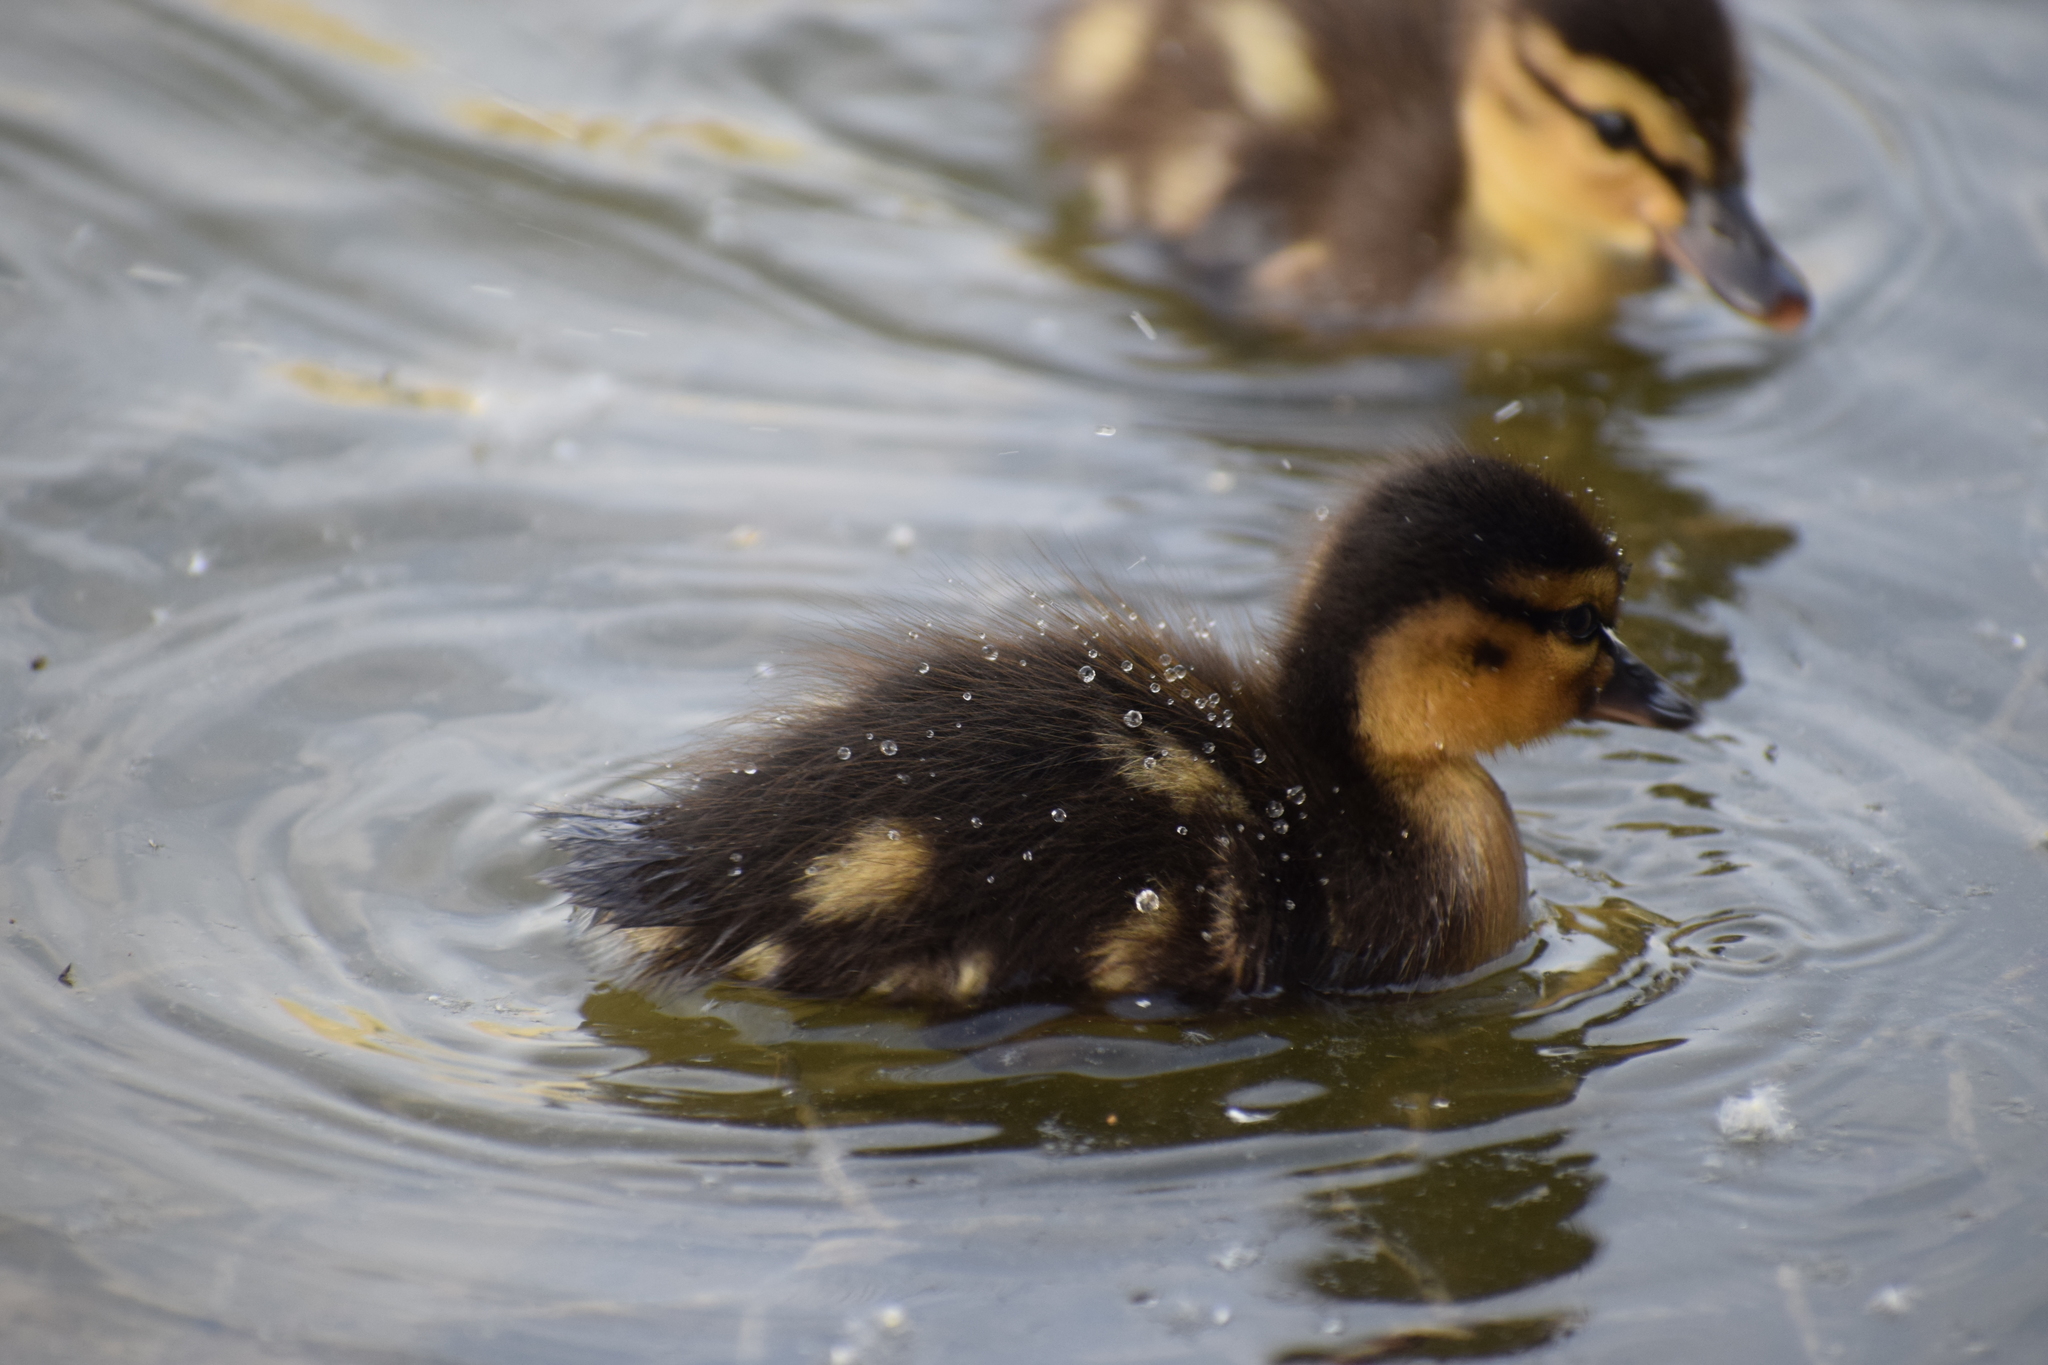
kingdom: Animalia
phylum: Chordata
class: Aves
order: Anseriformes
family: Anatidae
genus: Anas
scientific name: Anas platyrhynchos
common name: Mallard
